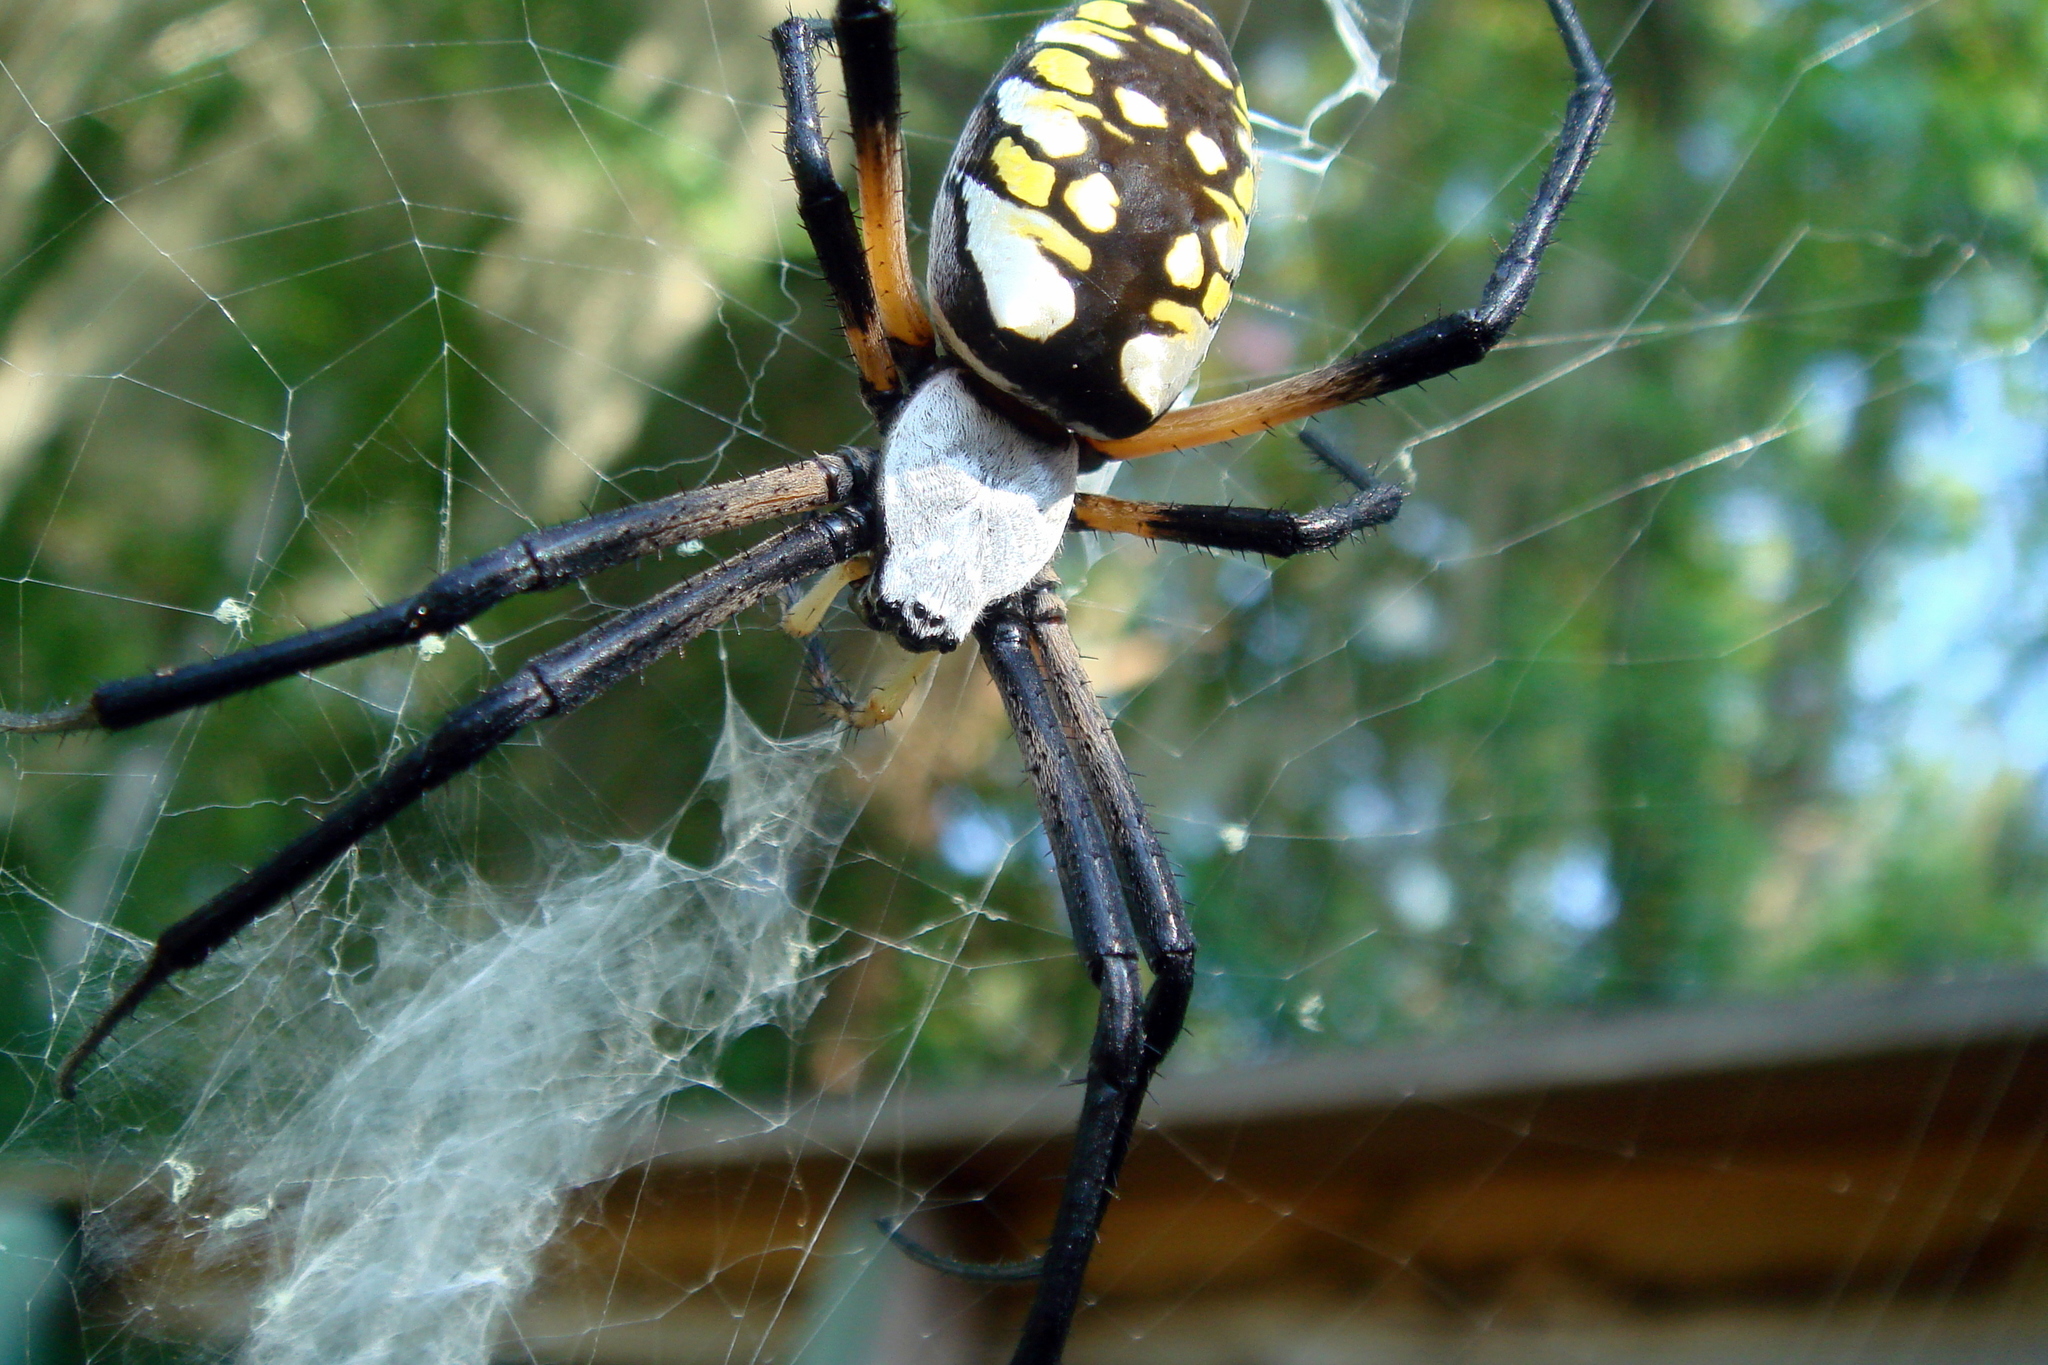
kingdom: Animalia
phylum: Arthropoda
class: Arachnida
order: Araneae
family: Araneidae
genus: Argiope
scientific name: Argiope aurantia
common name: Orb weavers
